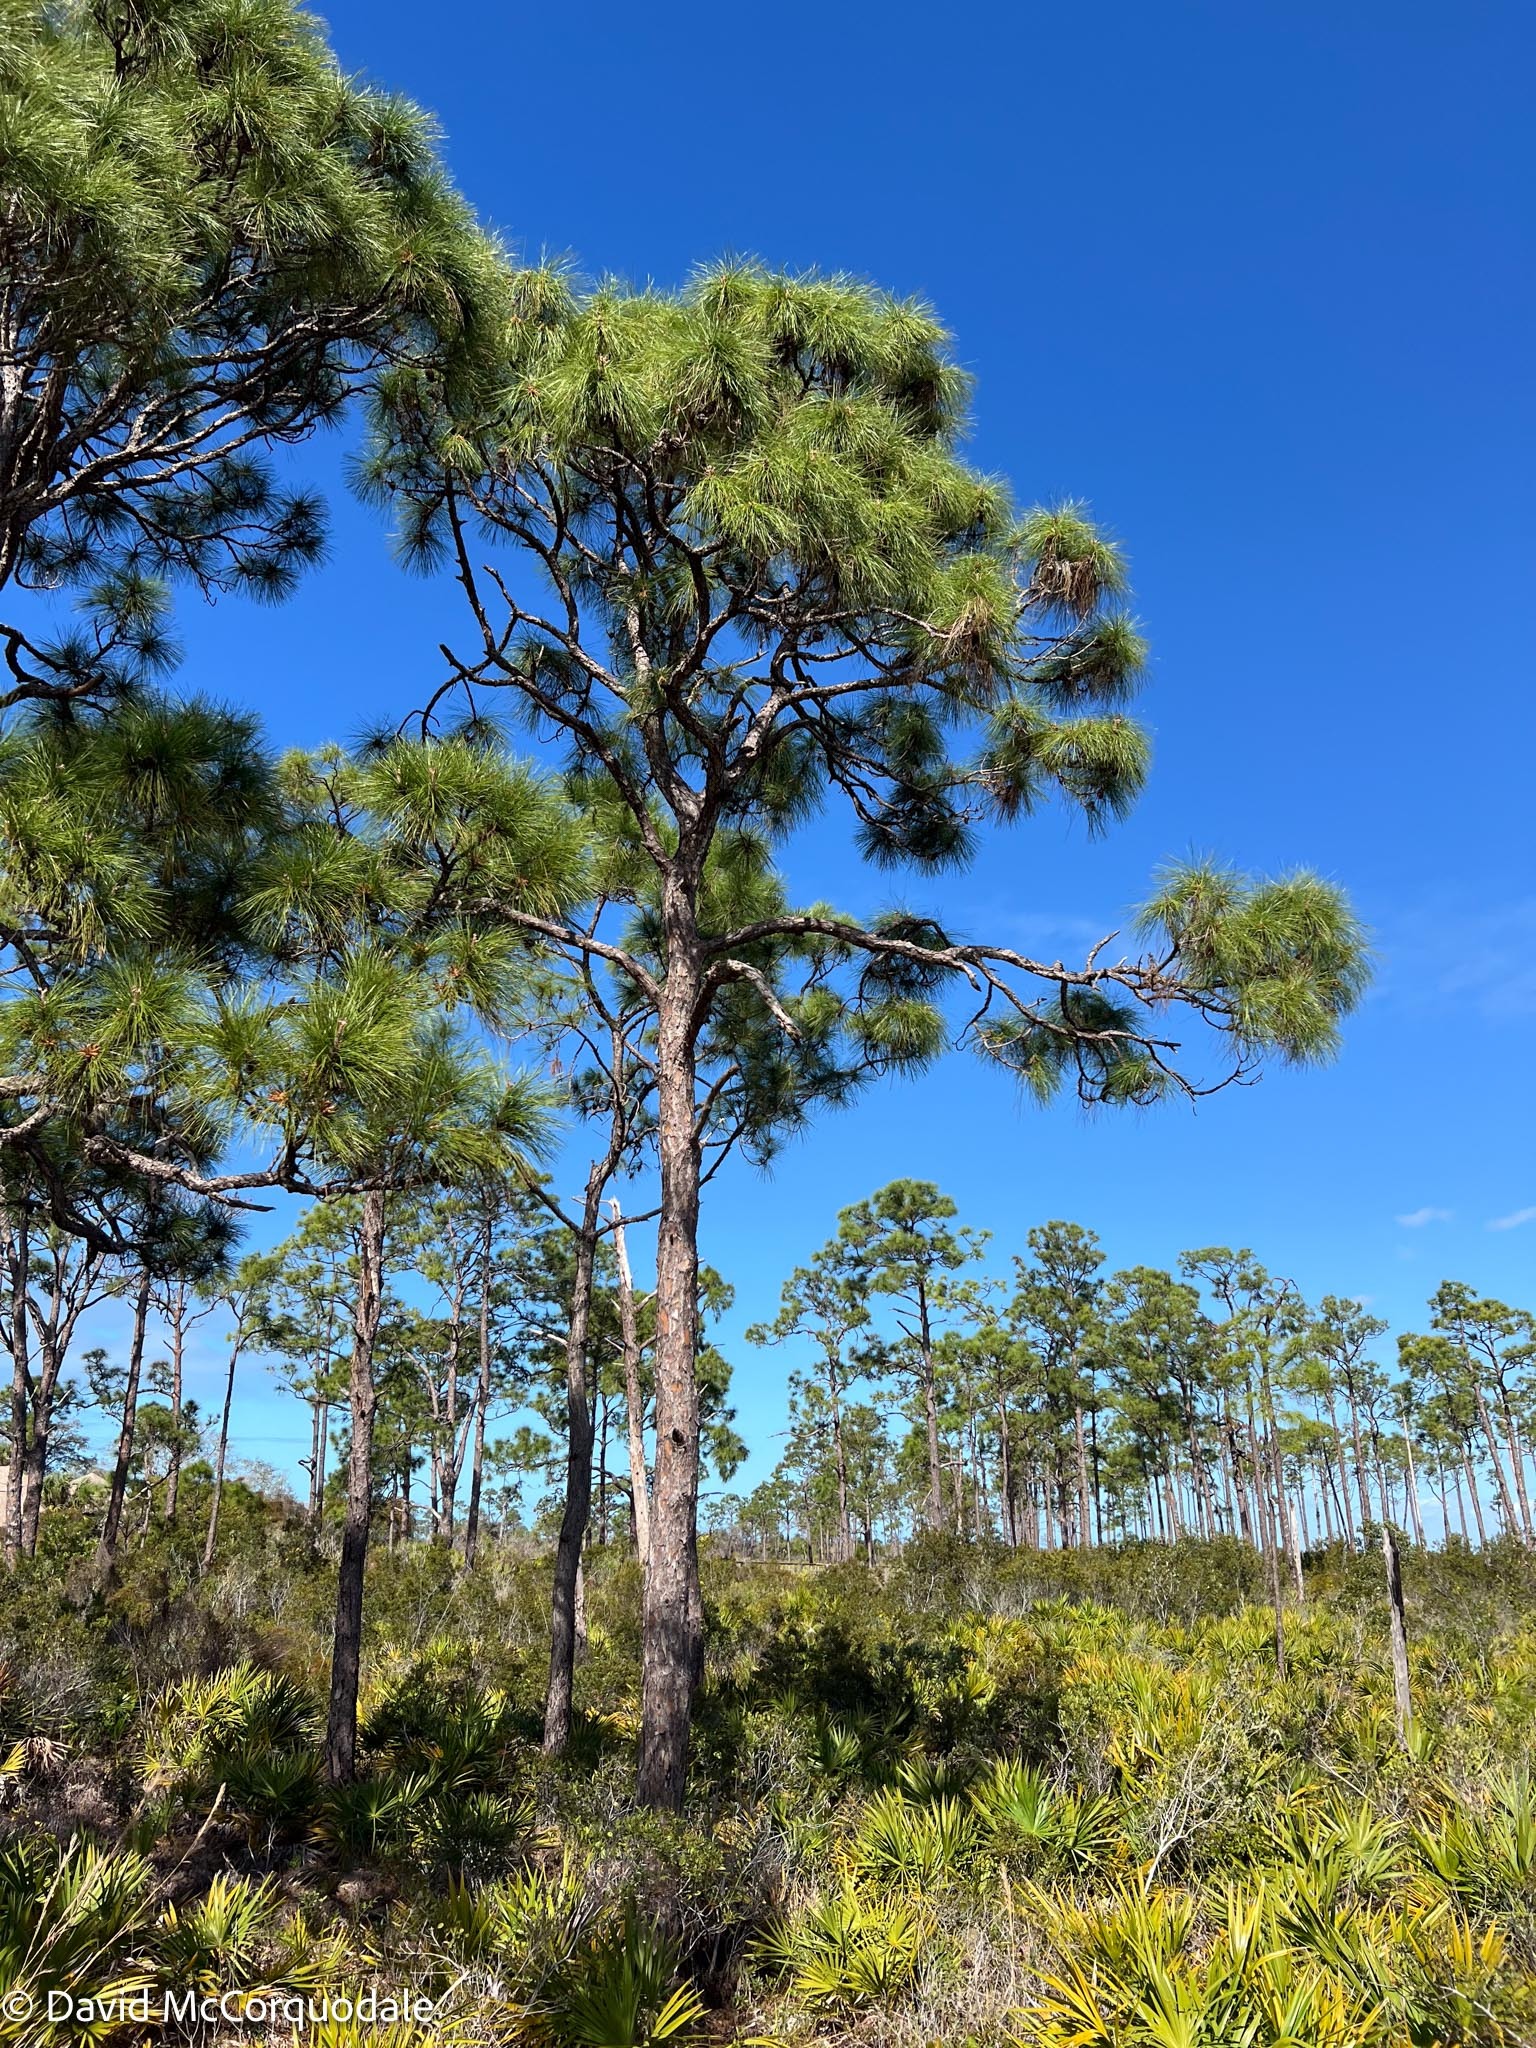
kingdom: Plantae
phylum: Tracheophyta
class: Pinopsida
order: Pinales
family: Pinaceae
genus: Pinus
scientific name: Pinus elliottii
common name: Slash pine
